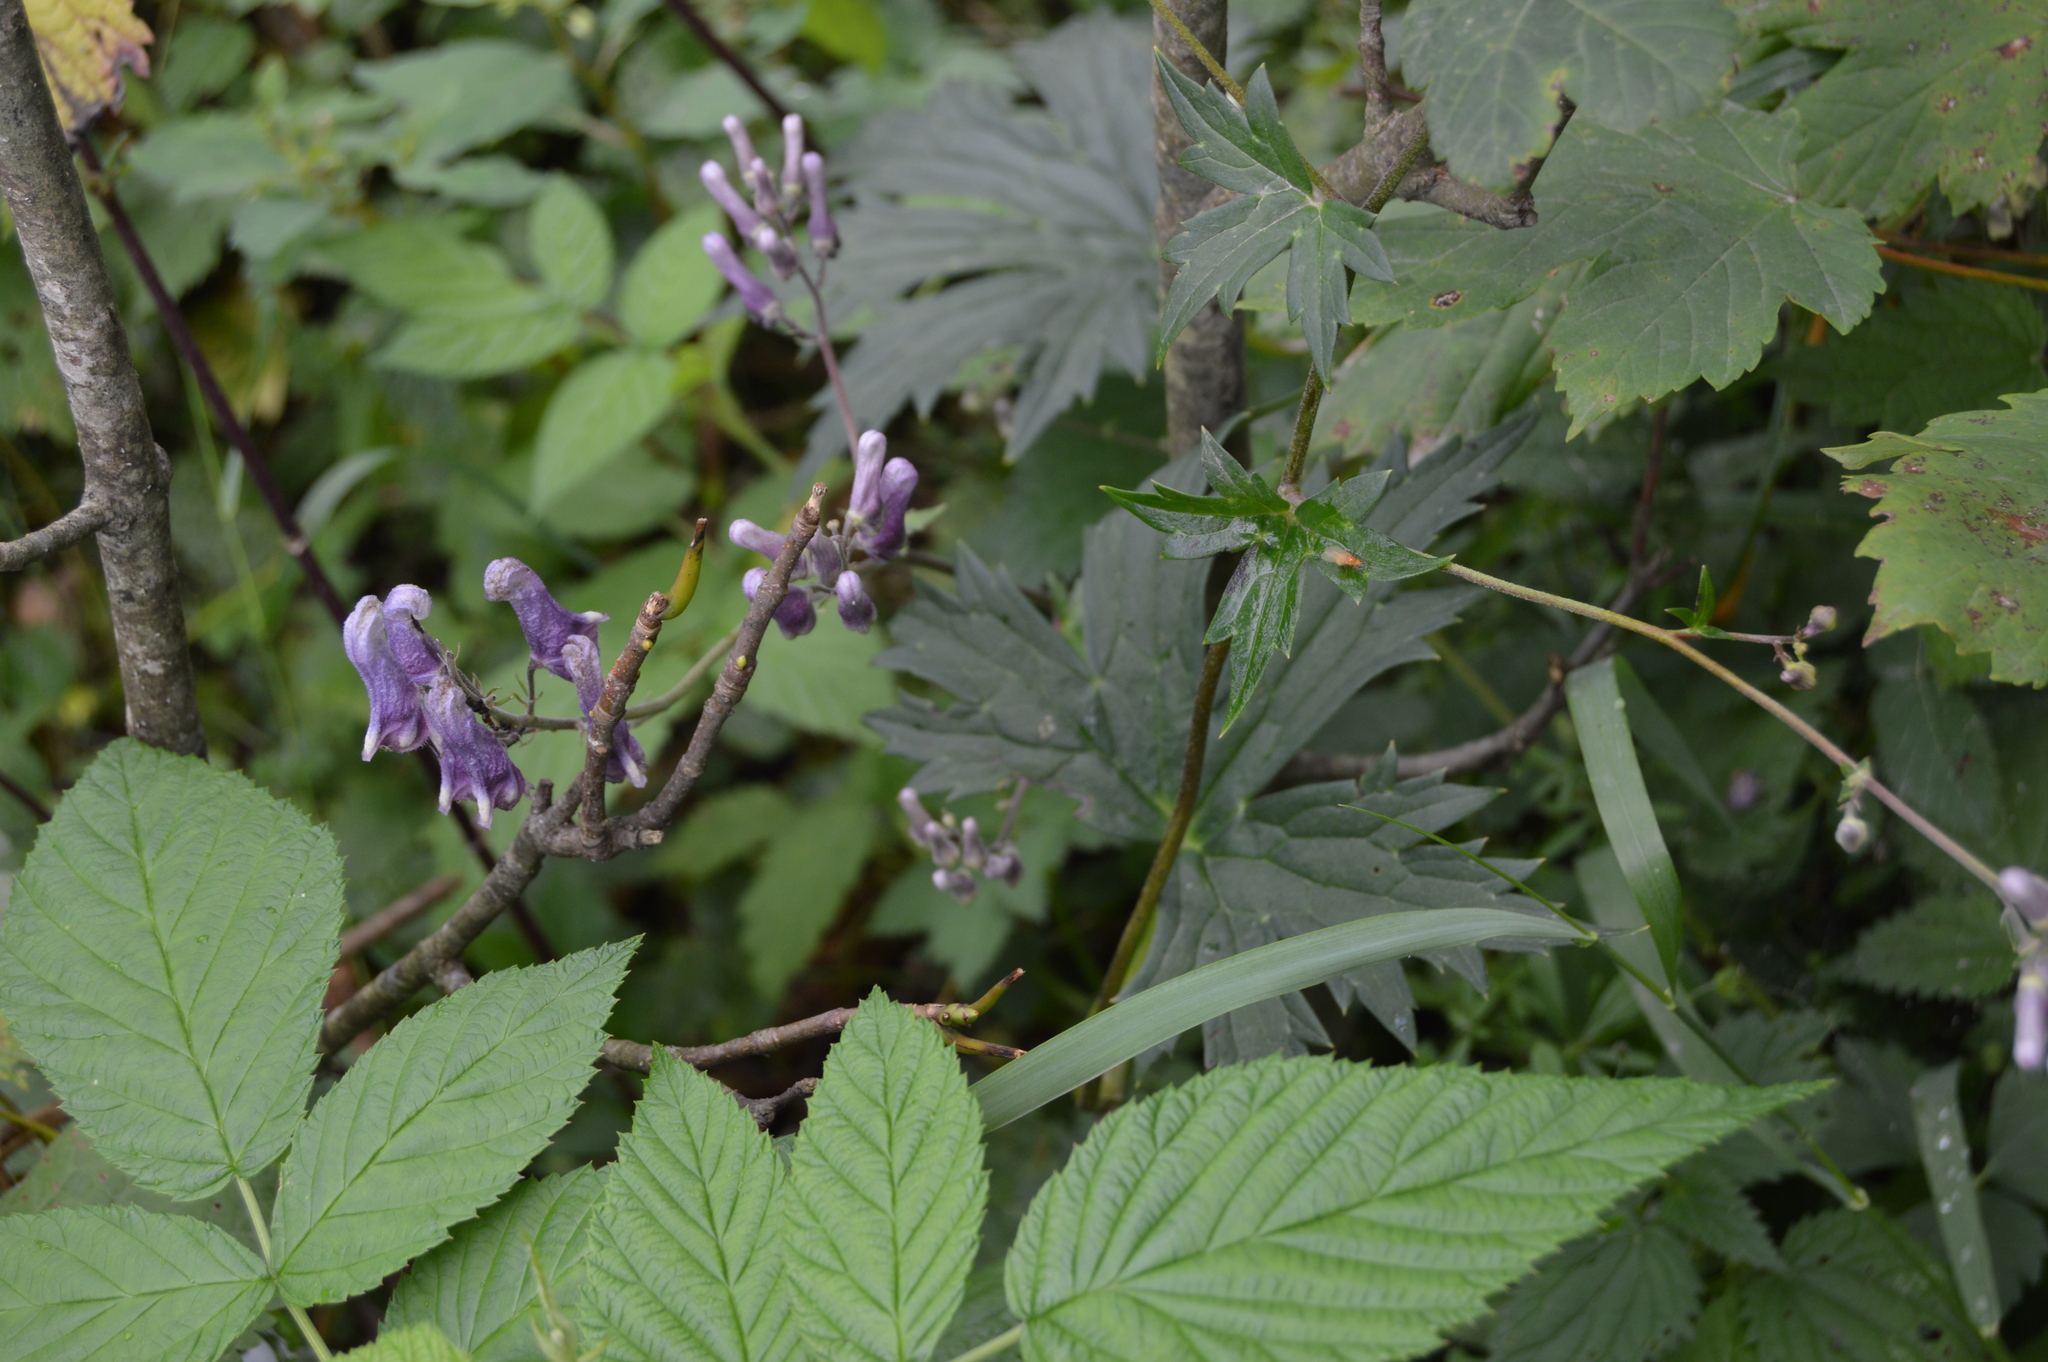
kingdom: Plantae
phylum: Tracheophyta
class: Magnoliopsida
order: Ranunculales
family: Ranunculaceae
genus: Aconitum
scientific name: Aconitum lycoctonum
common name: Wolf's-bane
